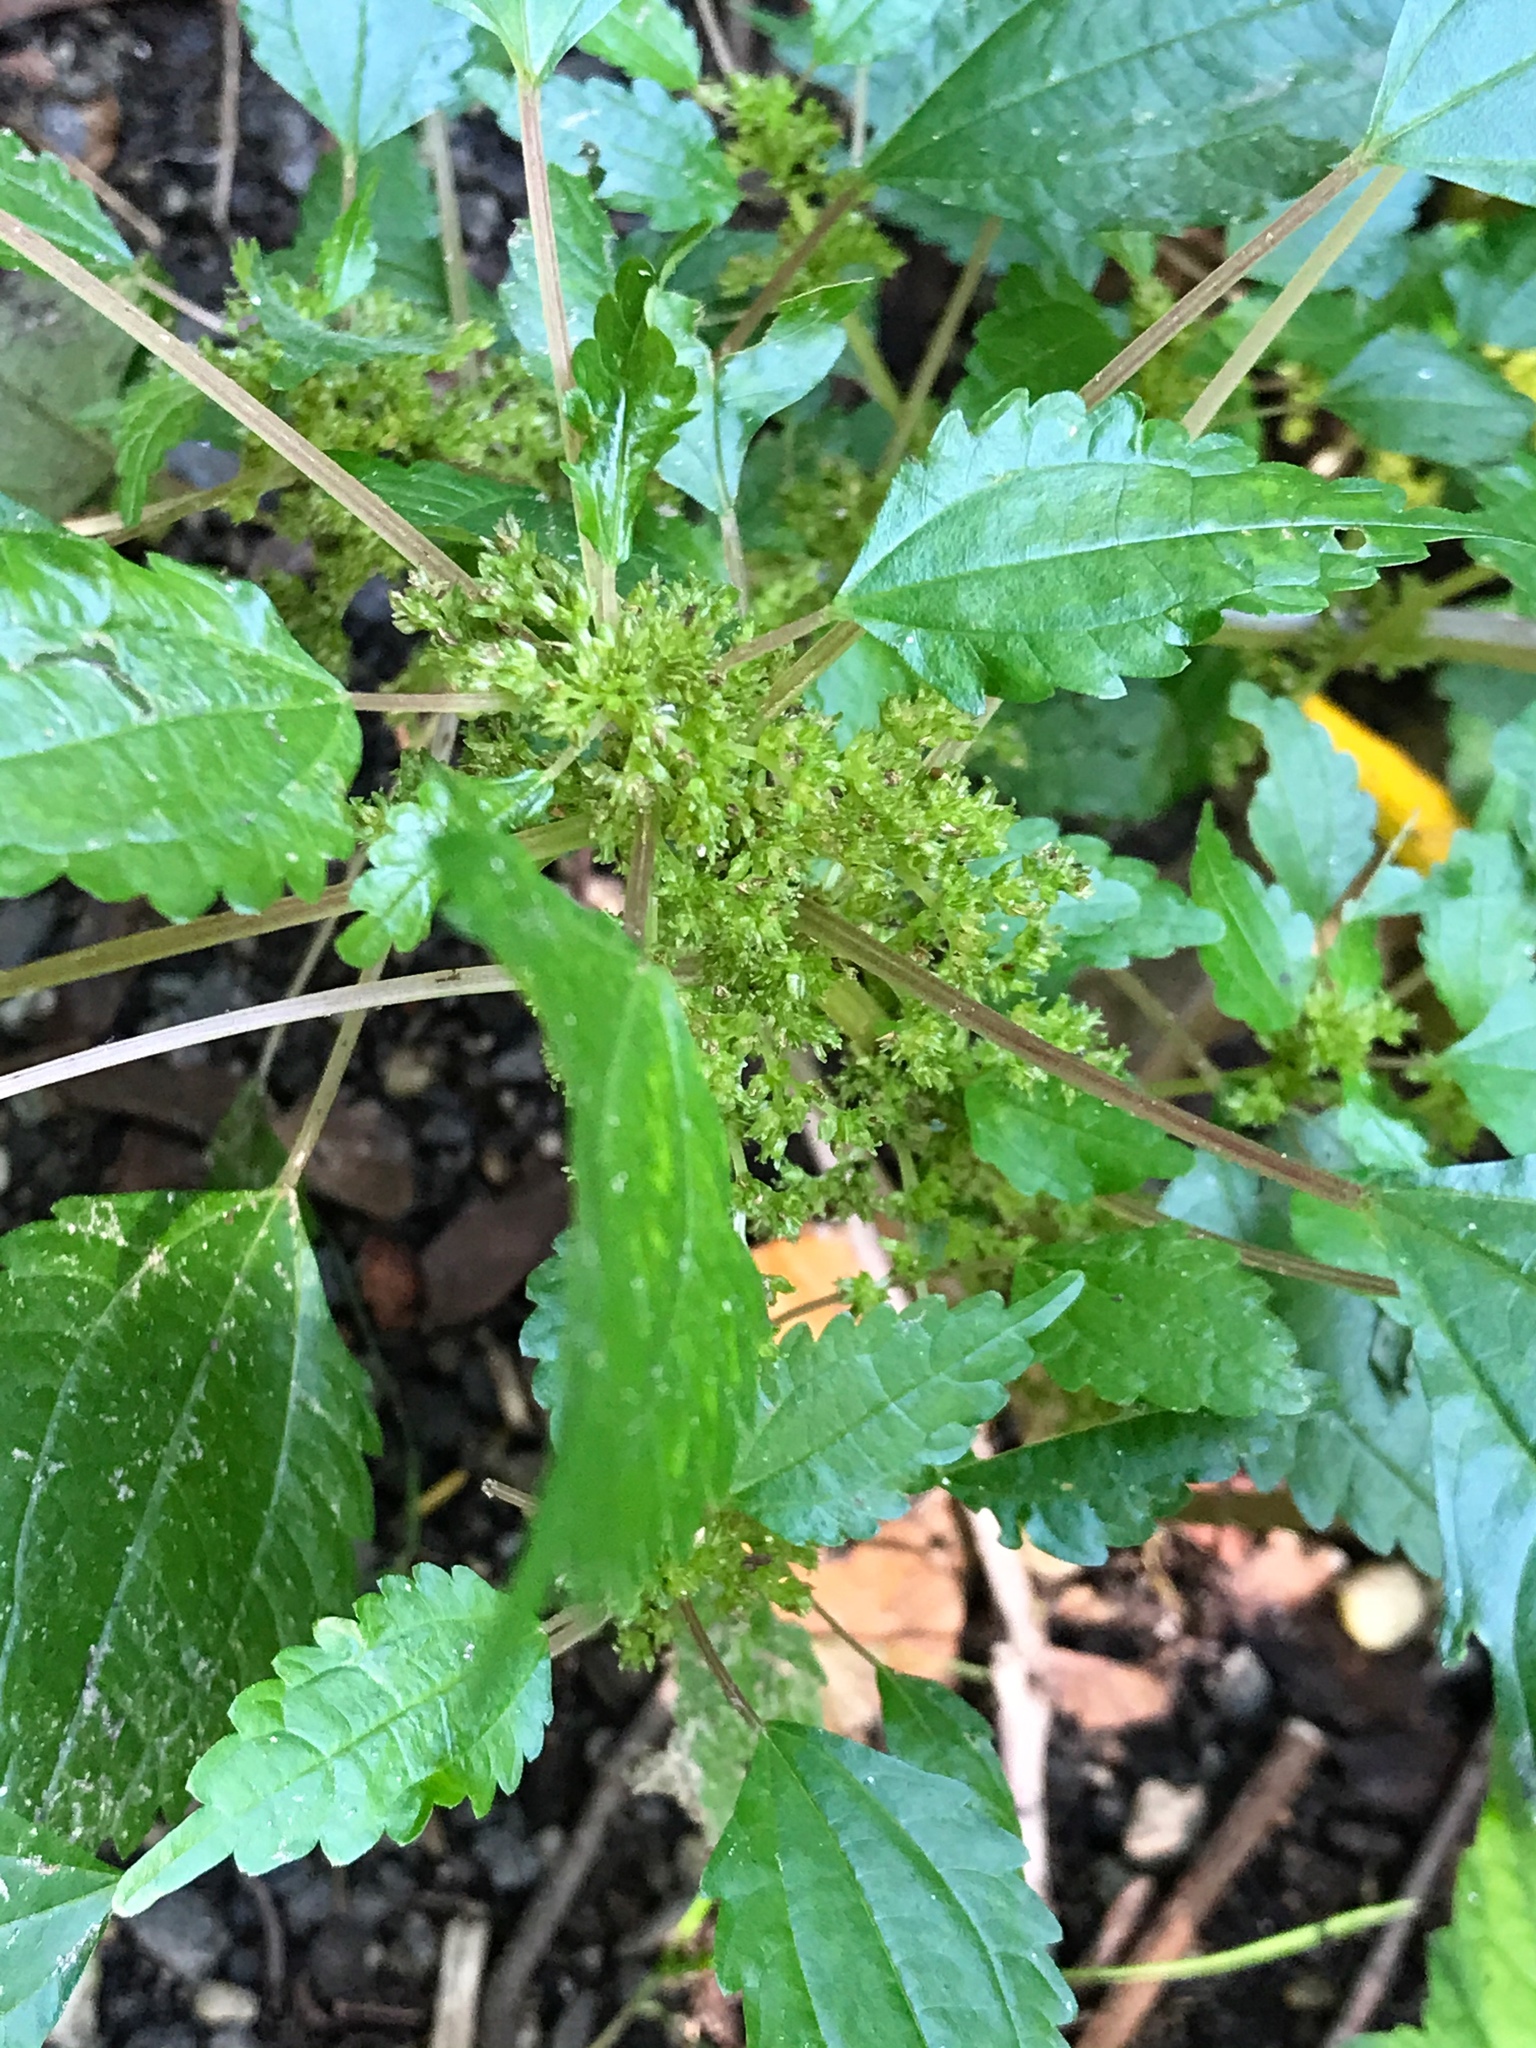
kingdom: Plantae
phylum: Tracheophyta
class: Magnoliopsida
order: Rosales
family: Urticaceae
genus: Pilea
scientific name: Pilea pumila
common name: Clearweed
